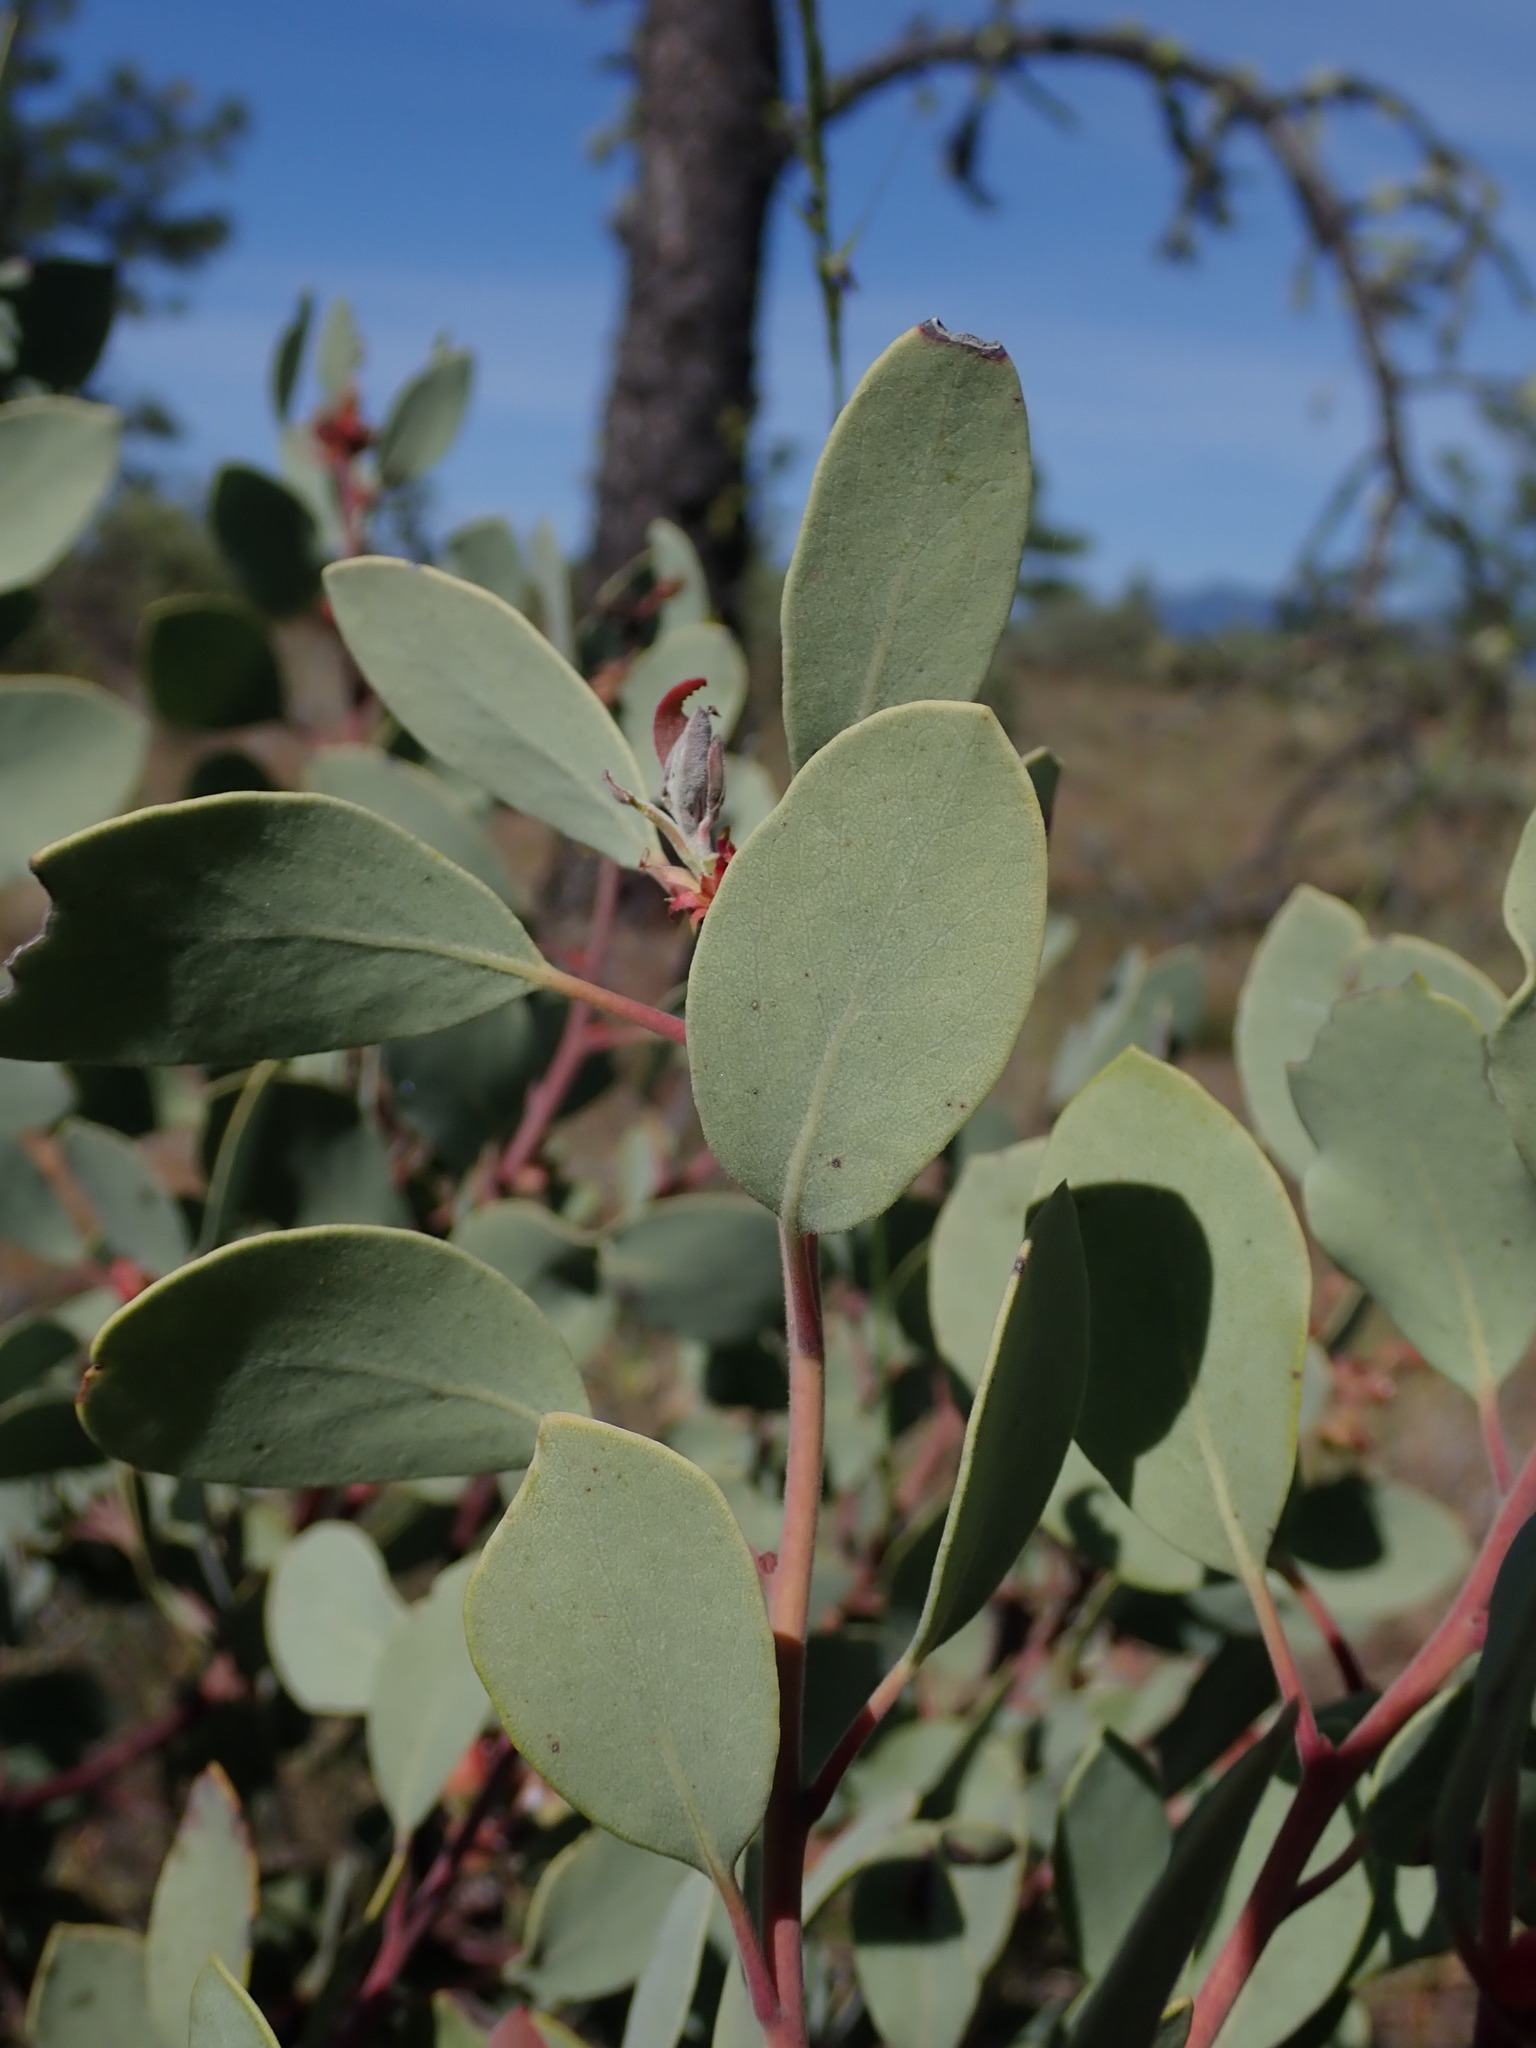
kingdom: Plantae
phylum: Tracheophyta
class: Magnoliopsida
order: Ericales
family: Ericaceae
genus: Arctostaphylos
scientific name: Arctostaphylos viscida
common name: White-leaf manzanita
